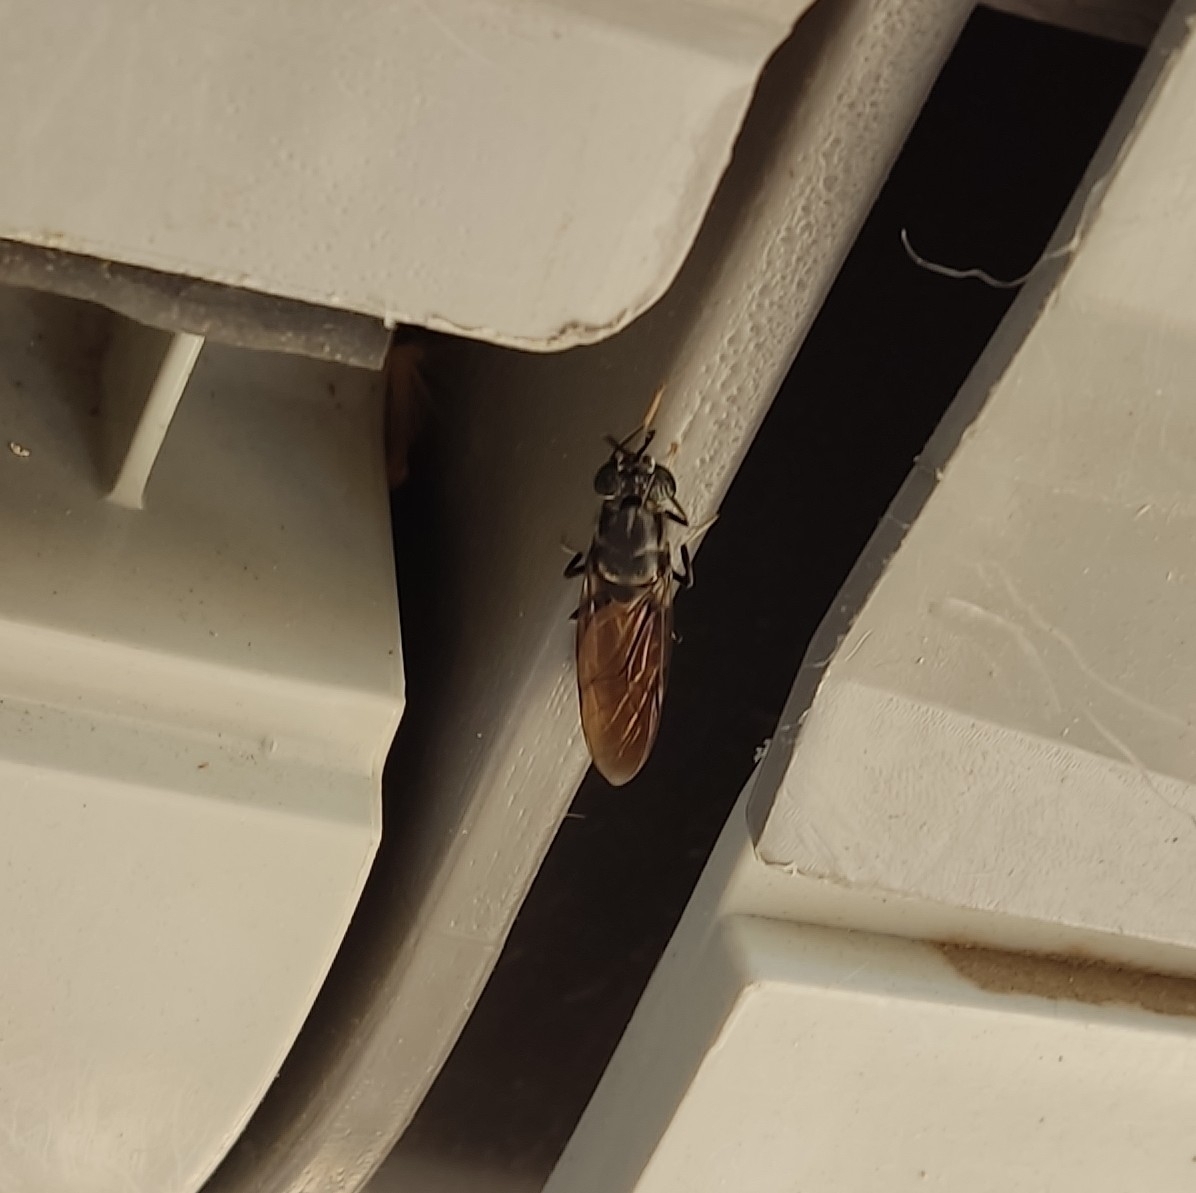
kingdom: Animalia
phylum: Arthropoda
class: Insecta
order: Diptera
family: Stratiomyidae
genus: Hermetia
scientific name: Hermetia illucens
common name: Black soldier fly
